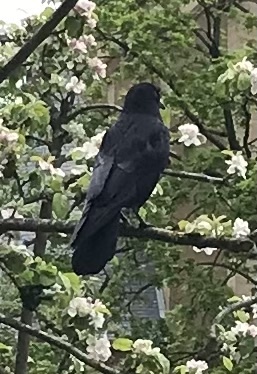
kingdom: Animalia
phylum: Chordata
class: Aves
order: Passeriformes
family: Corvidae
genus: Corvus
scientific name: Corvus corone
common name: Carrion crow
